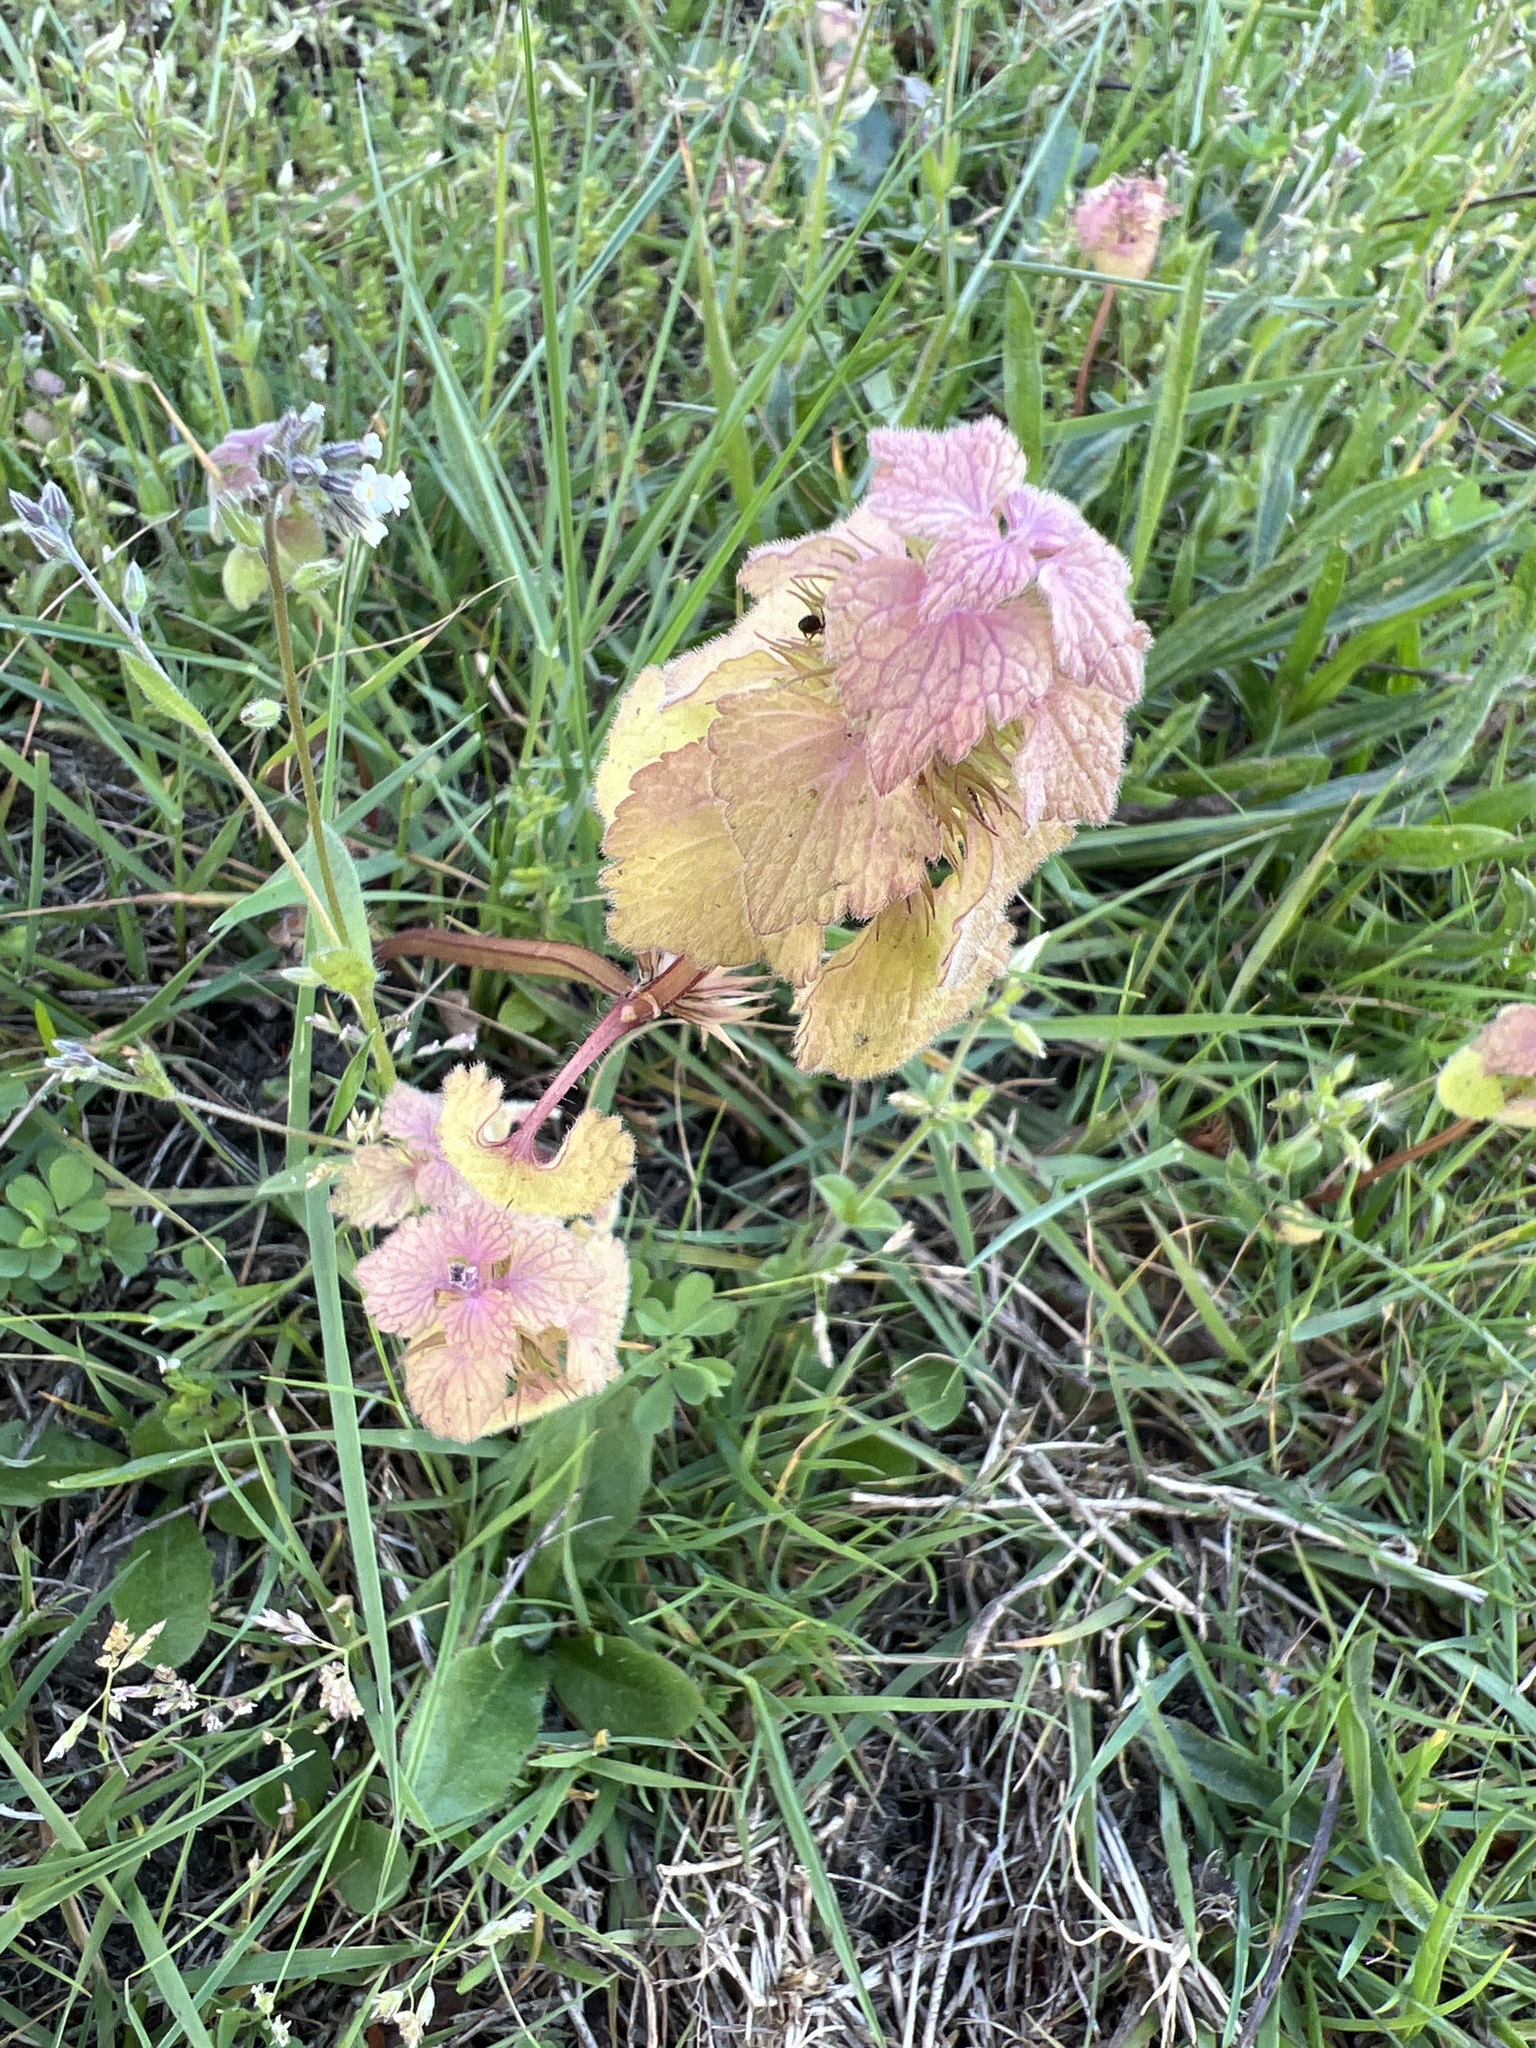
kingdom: Plantae
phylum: Tracheophyta
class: Magnoliopsida
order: Lamiales
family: Lamiaceae
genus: Lamium
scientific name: Lamium purpureum
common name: Red dead-nettle
